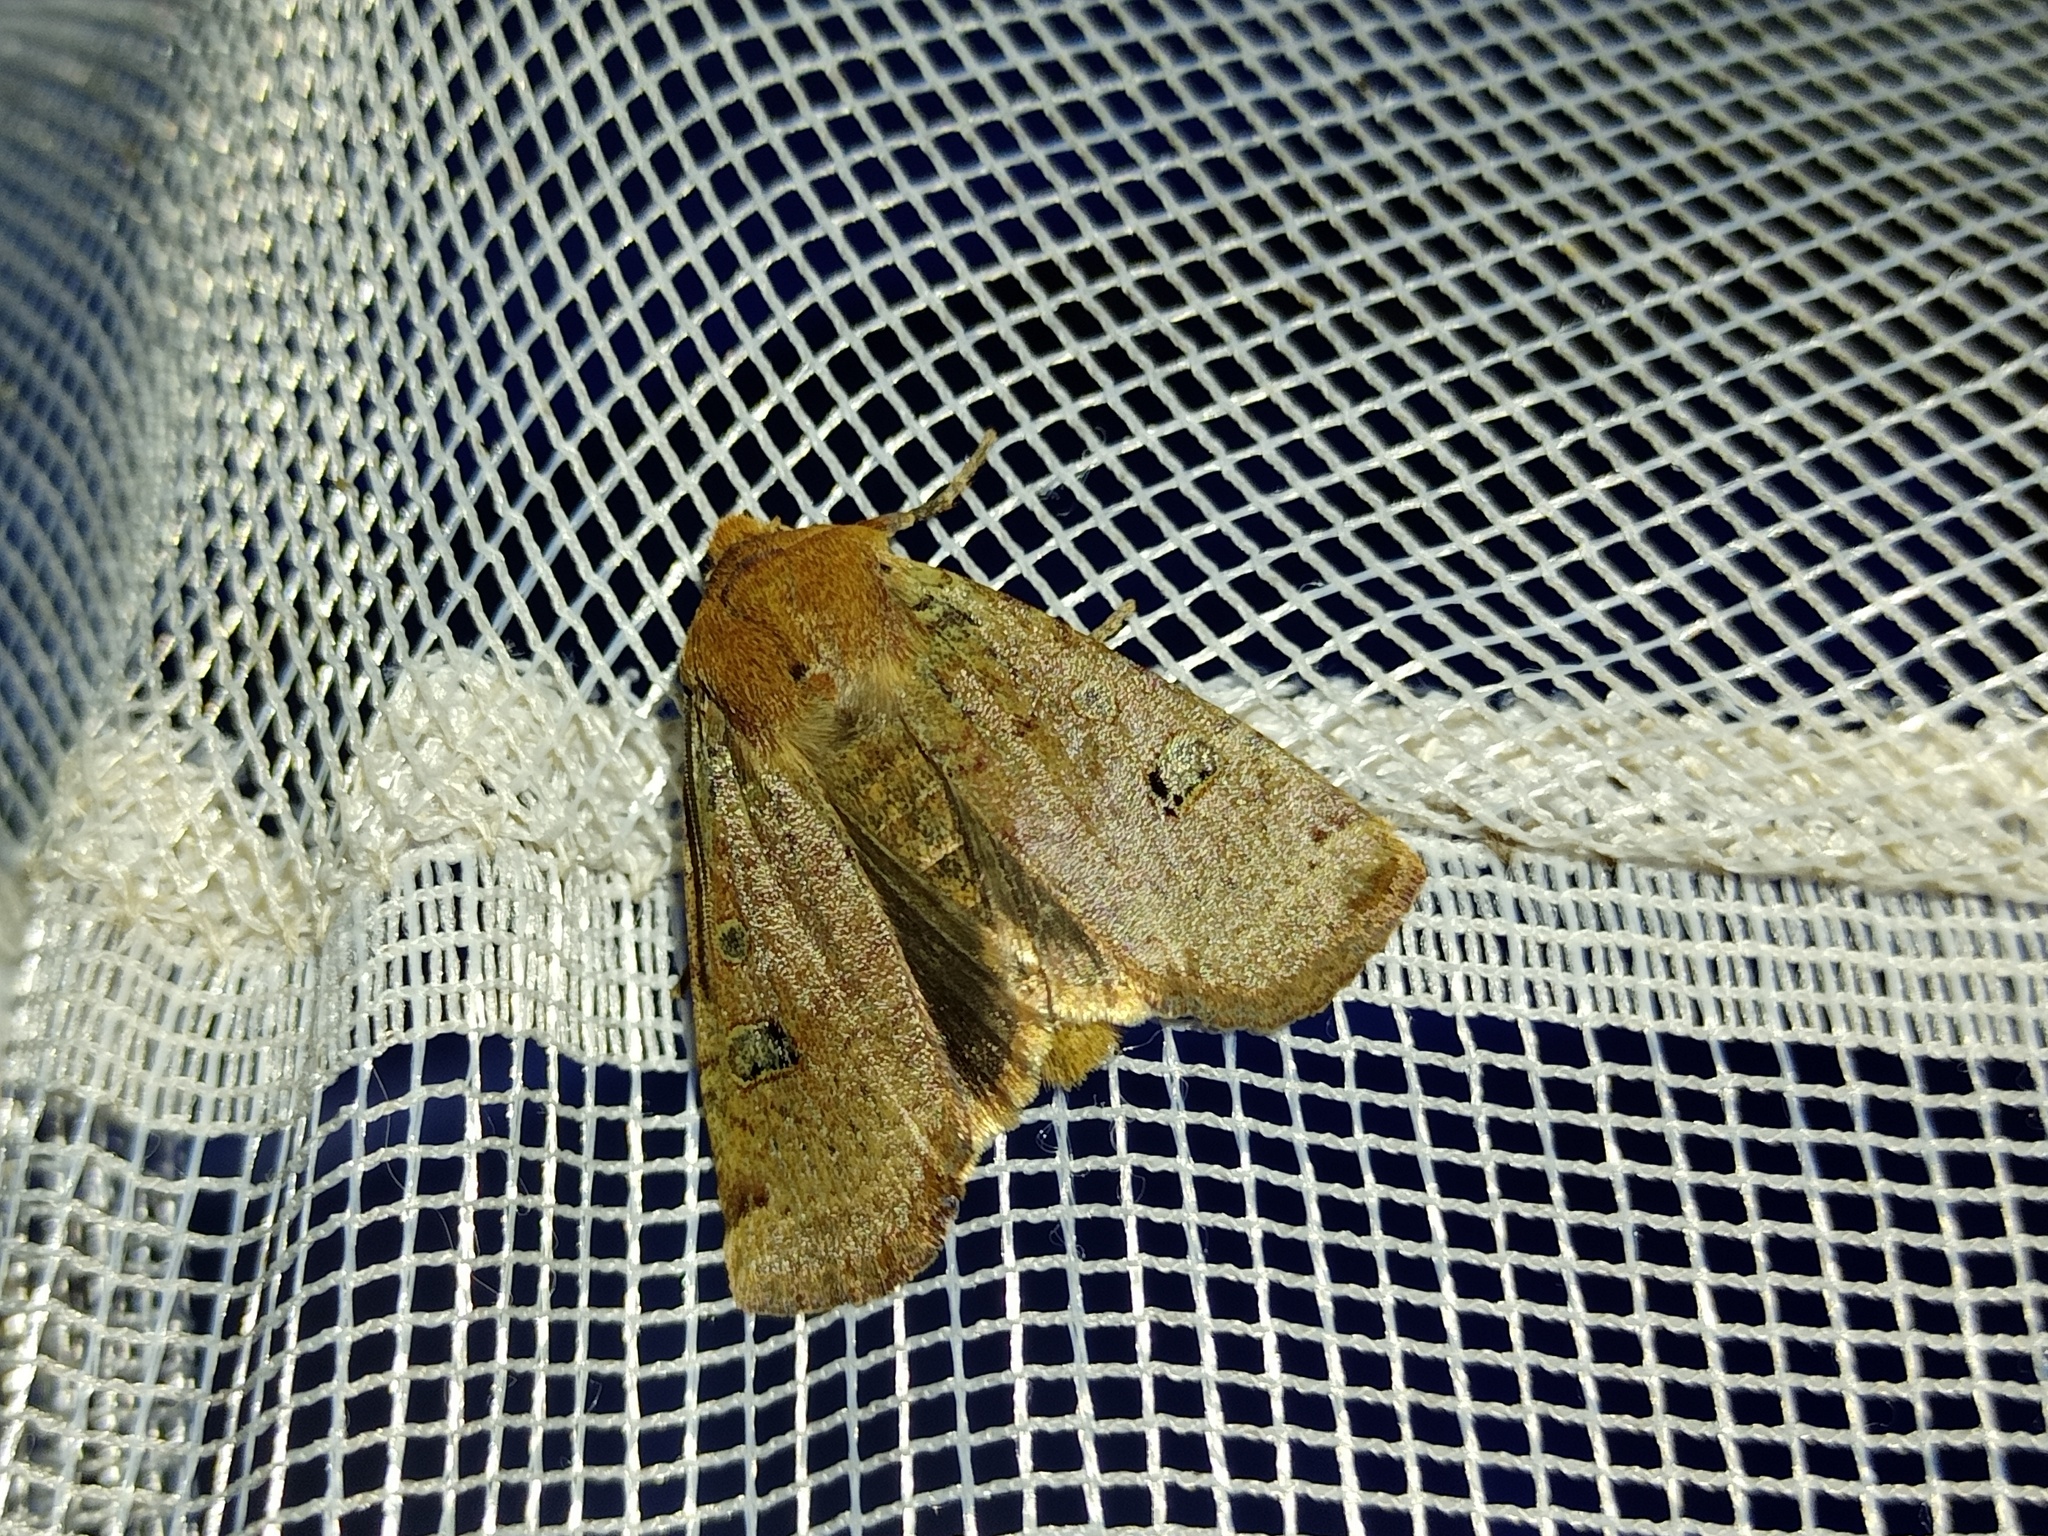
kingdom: Animalia
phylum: Arthropoda
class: Insecta
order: Lepidoptera
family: Noctuidae
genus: Conistra
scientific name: Conistra erythrocephala
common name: Red-headed chestnut
